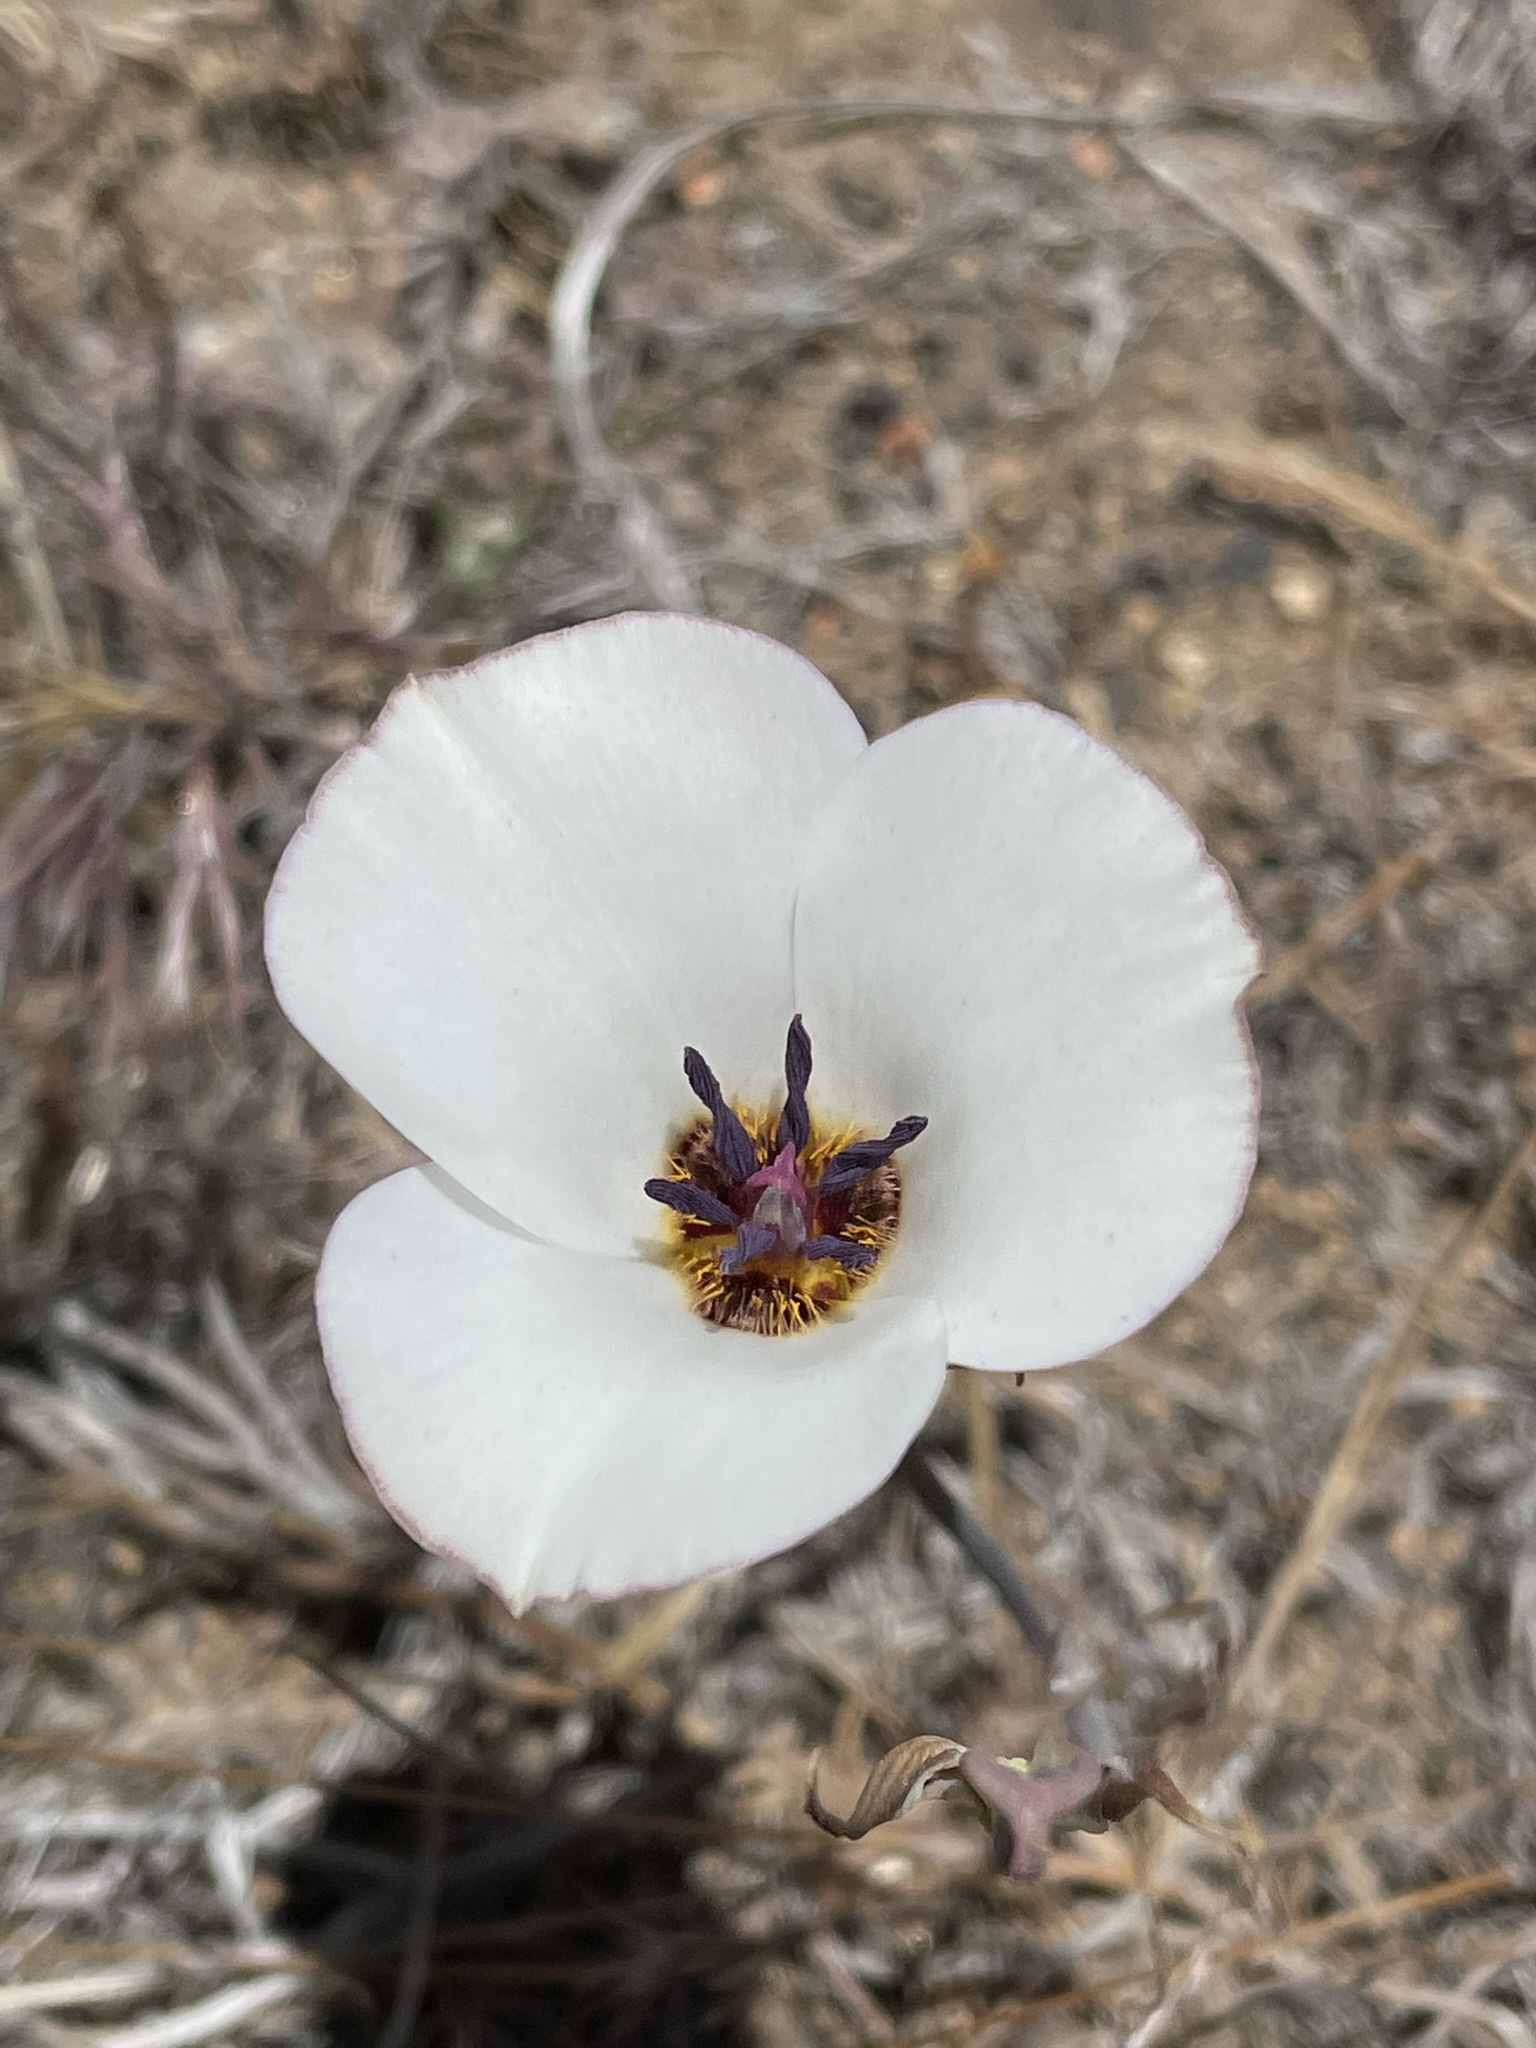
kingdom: Plantae
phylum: Tracheophyta
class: Liliopsida
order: Liliales
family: Liliaceae
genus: Calochortus
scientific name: Calochortus invenustus
